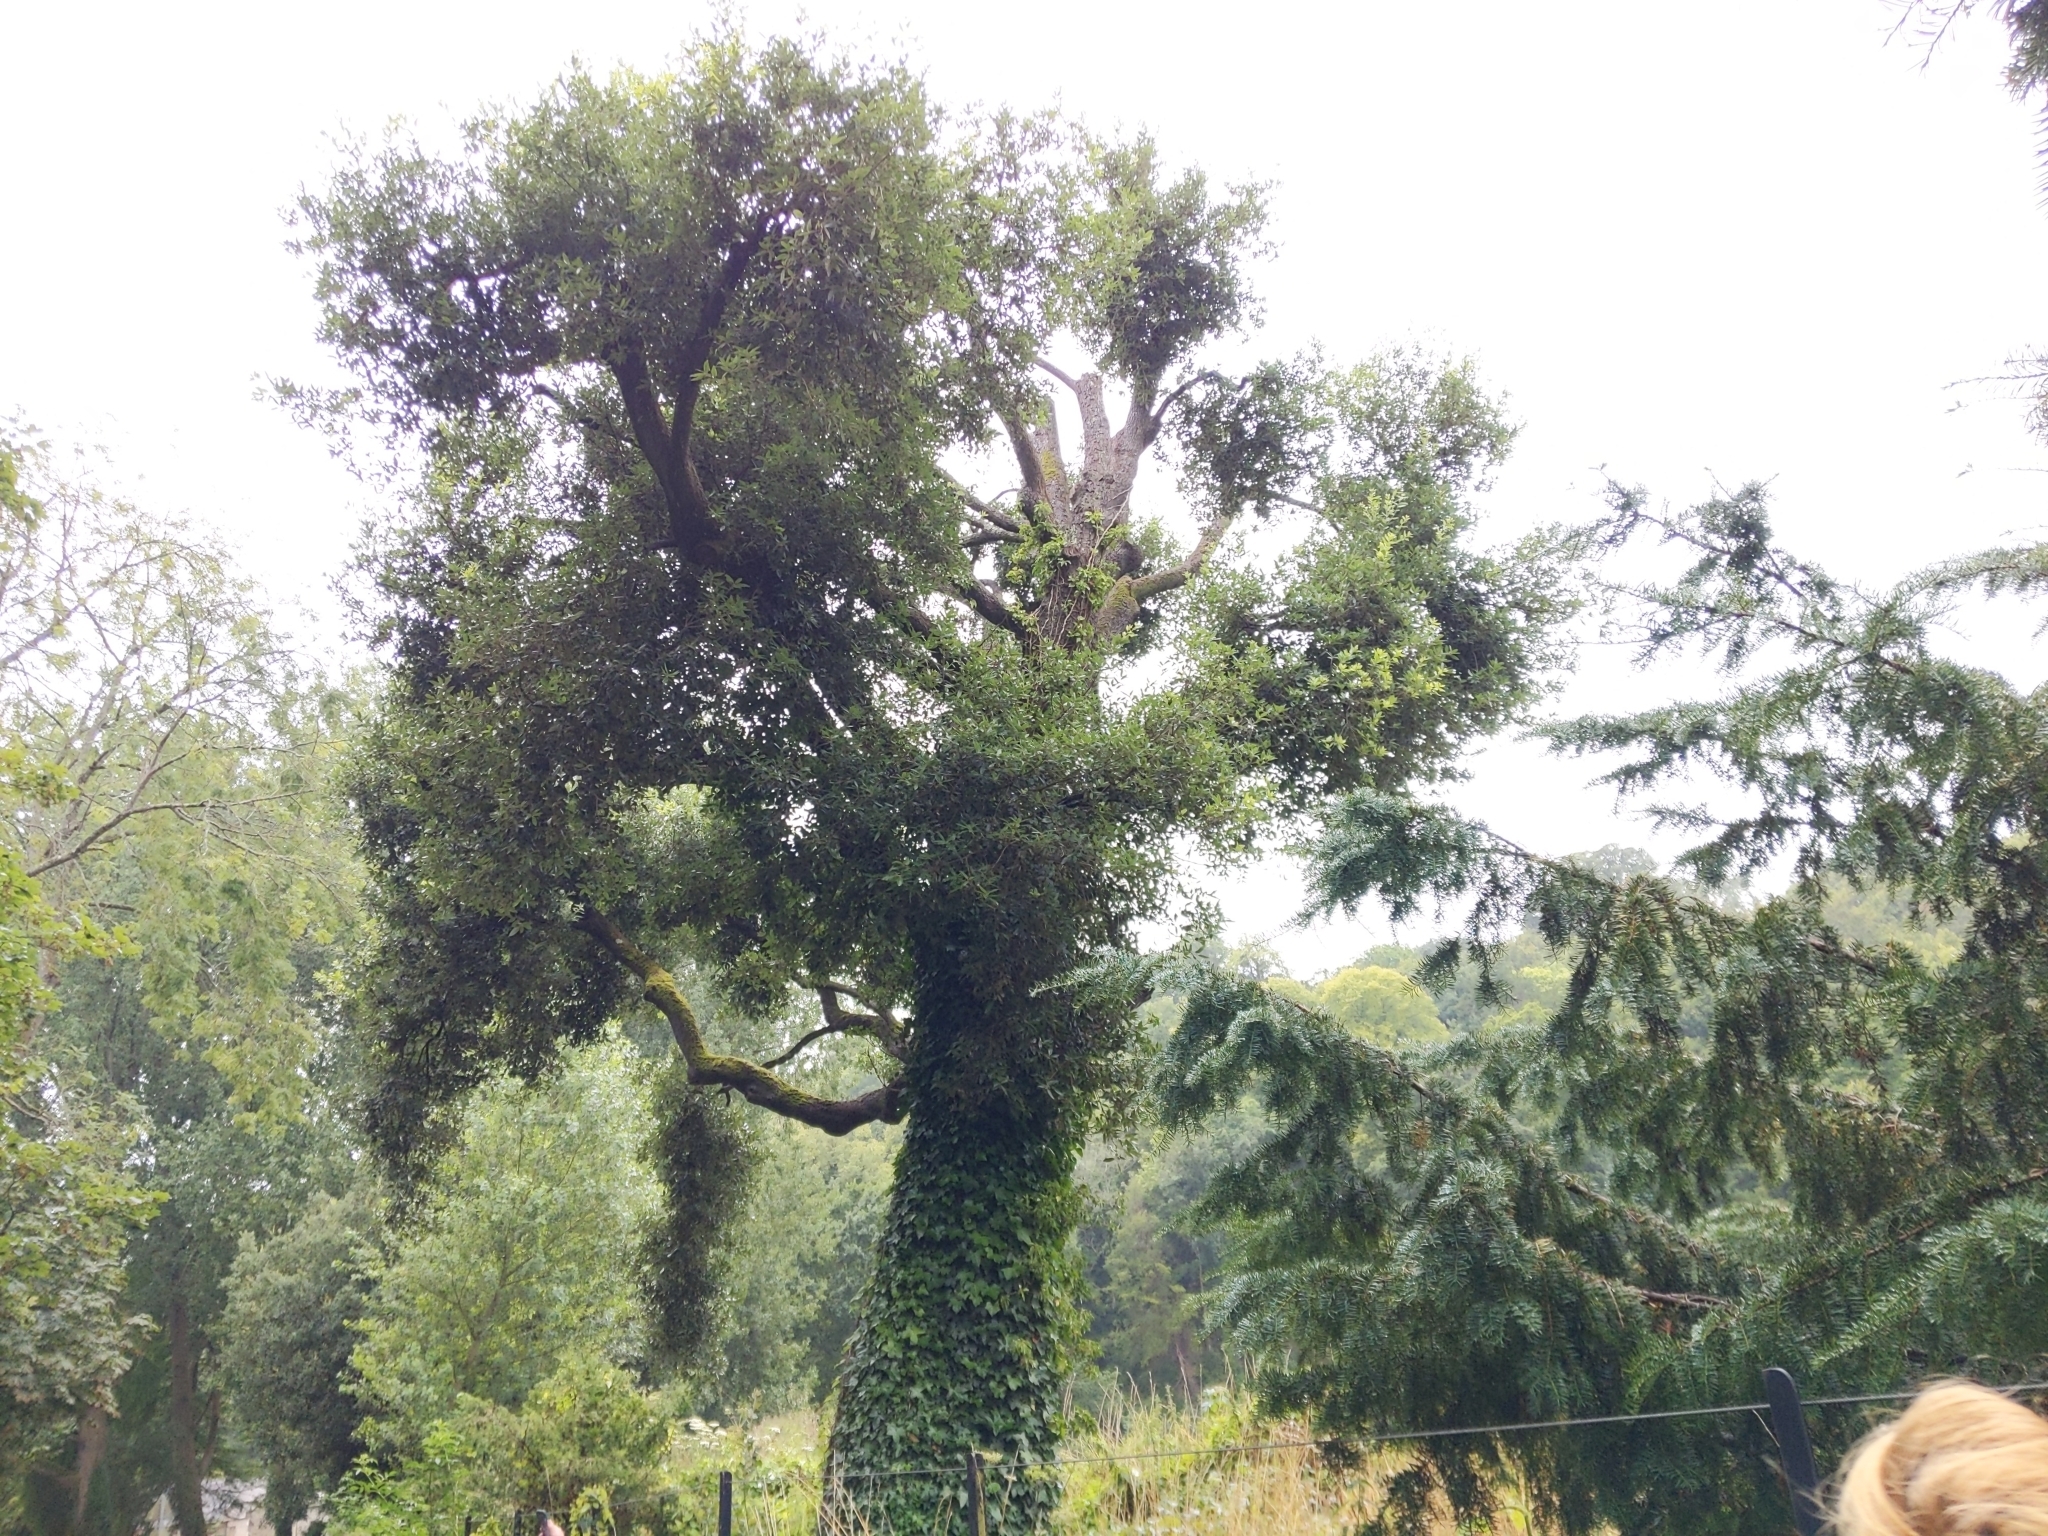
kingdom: Fungi
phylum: Basidiomycota
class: Agaricomycetes
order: Hymenochaetales
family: Hymenochaetaceae
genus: Pseudoinonotus
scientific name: Pseudoinonotus dryadeus
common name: Oak bracket
